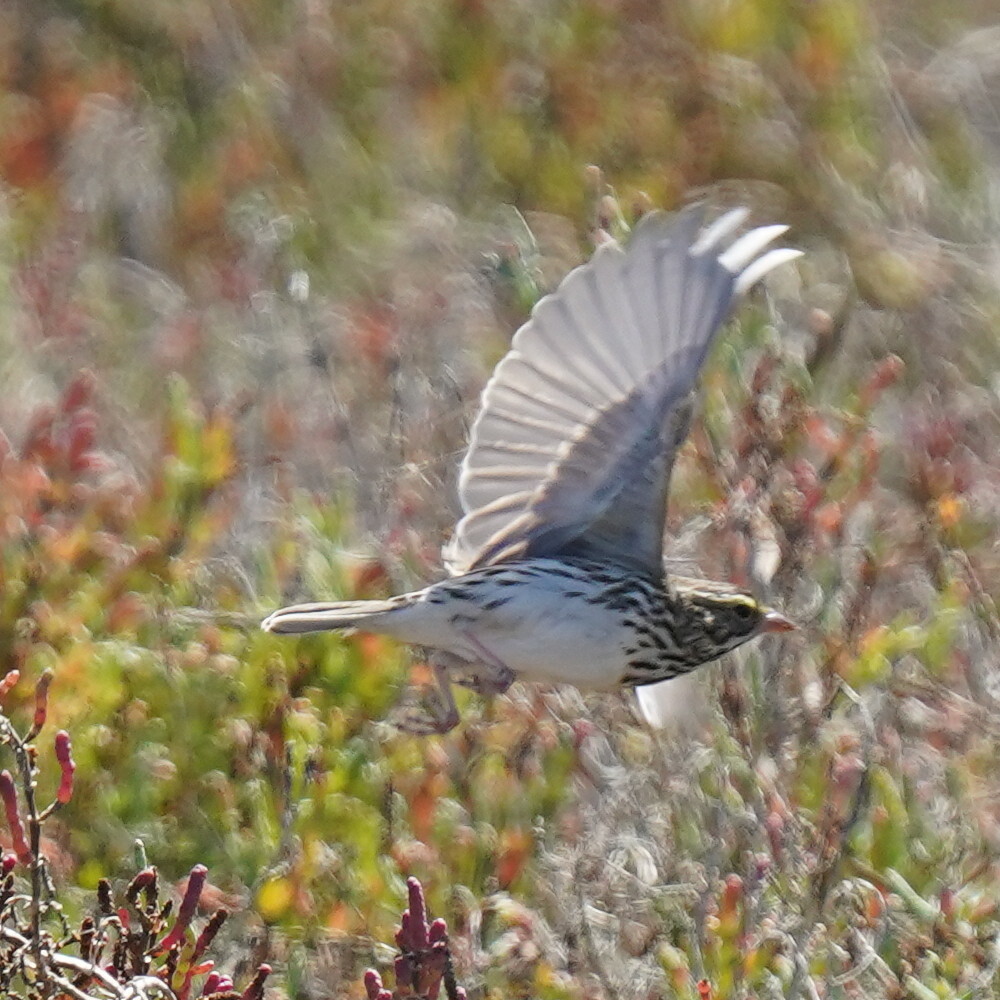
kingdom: Animalia
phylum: Chordata
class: Aves
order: Passeriformes
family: Passerellidae
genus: Passerculus
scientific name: Passerculus sandwichensis
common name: Savannah sparrow
